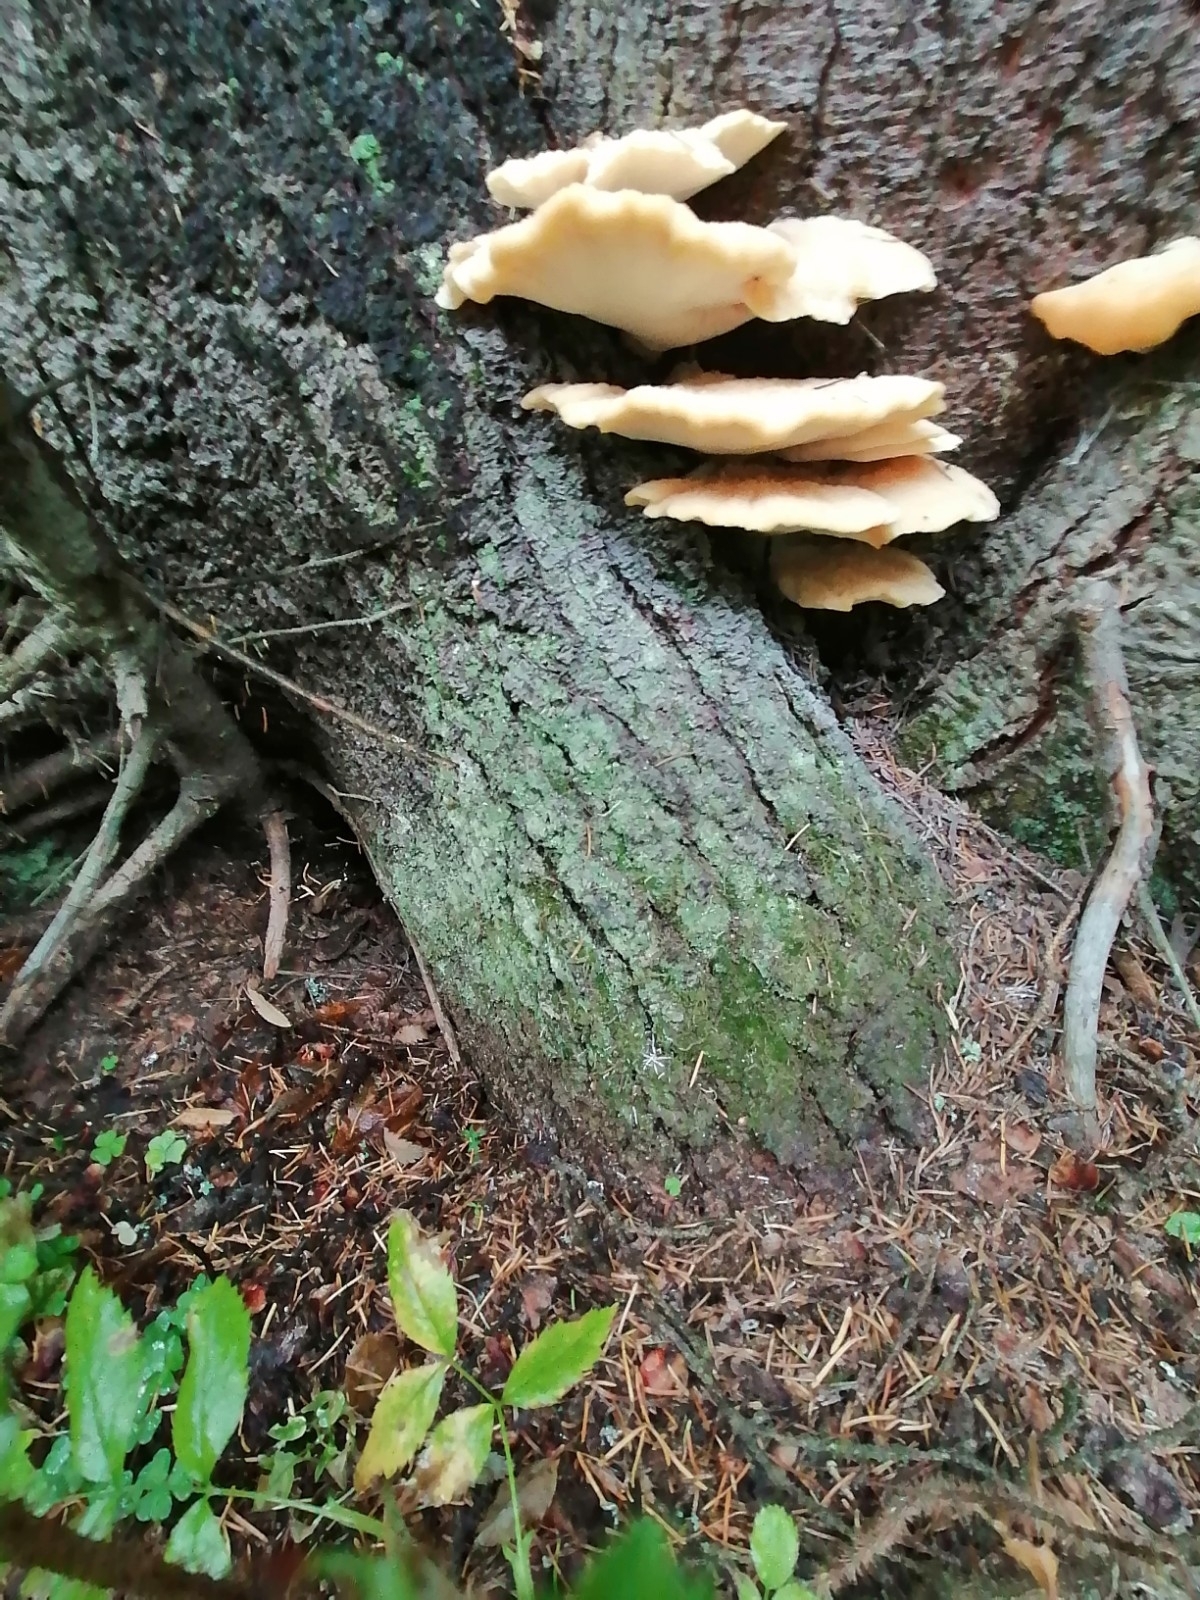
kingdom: Fungi
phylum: Basidiomycota
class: Agaricomycetes
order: Polyporales
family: Fomitopsidaceae
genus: Climacocystis
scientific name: Climacocystis borealis
